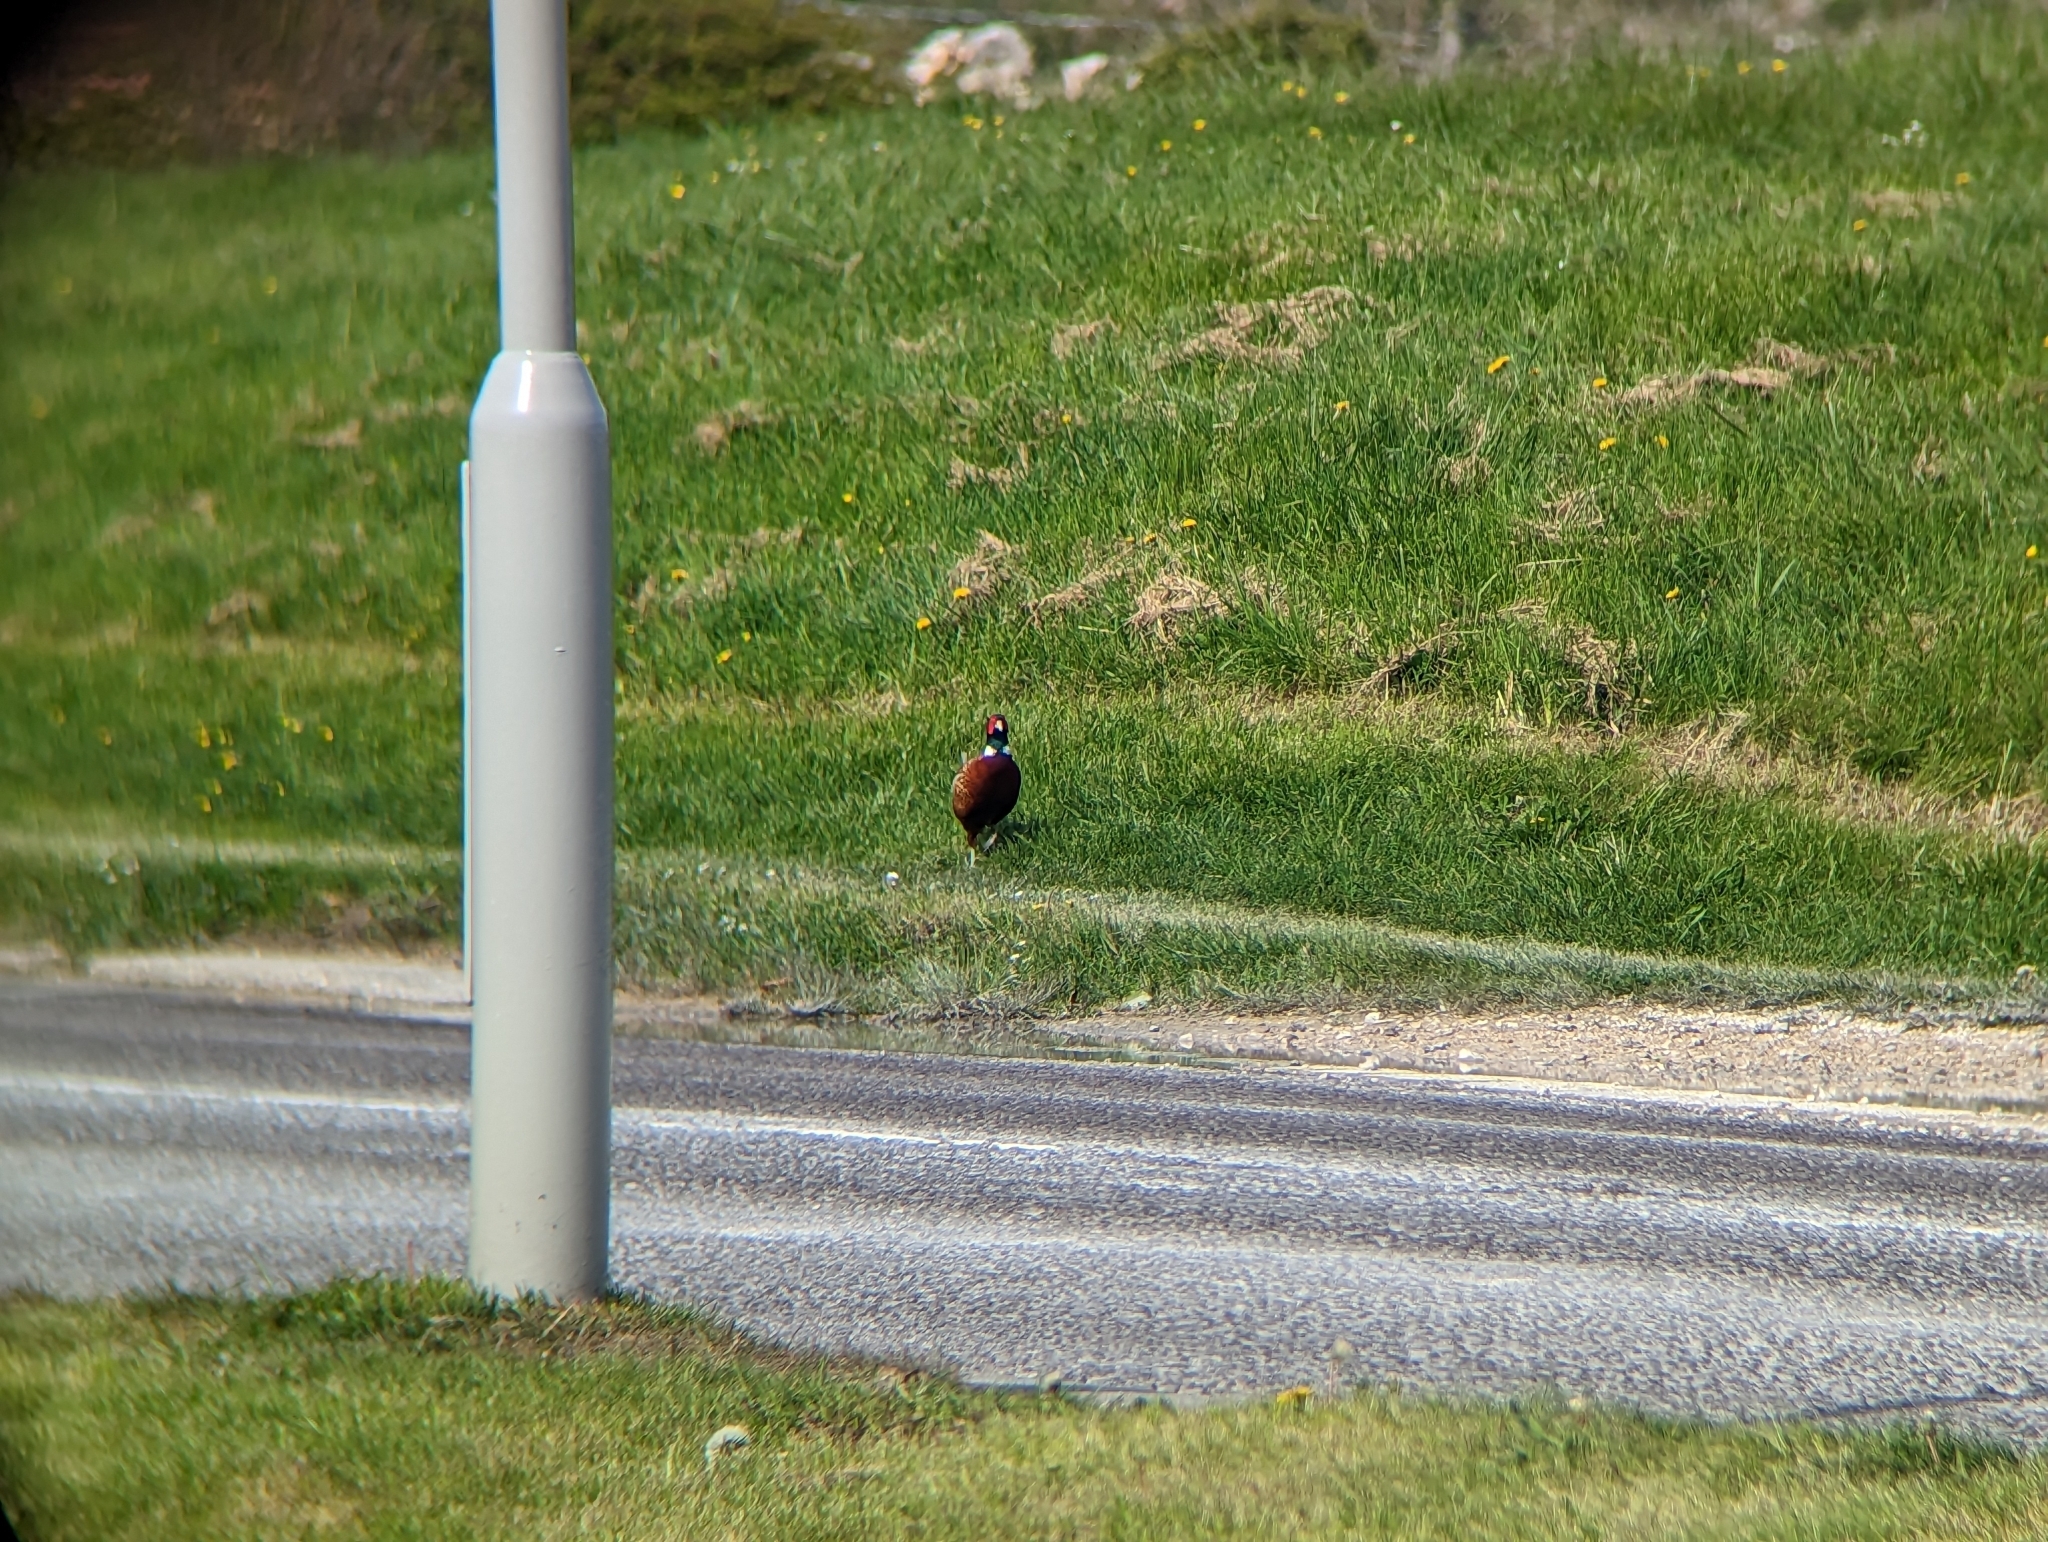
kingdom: Animalia
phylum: Chordata
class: Aves
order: Galliformes
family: Phasianidae
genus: Phasianus
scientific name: Phasianus colchicus
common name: Common pheasant
